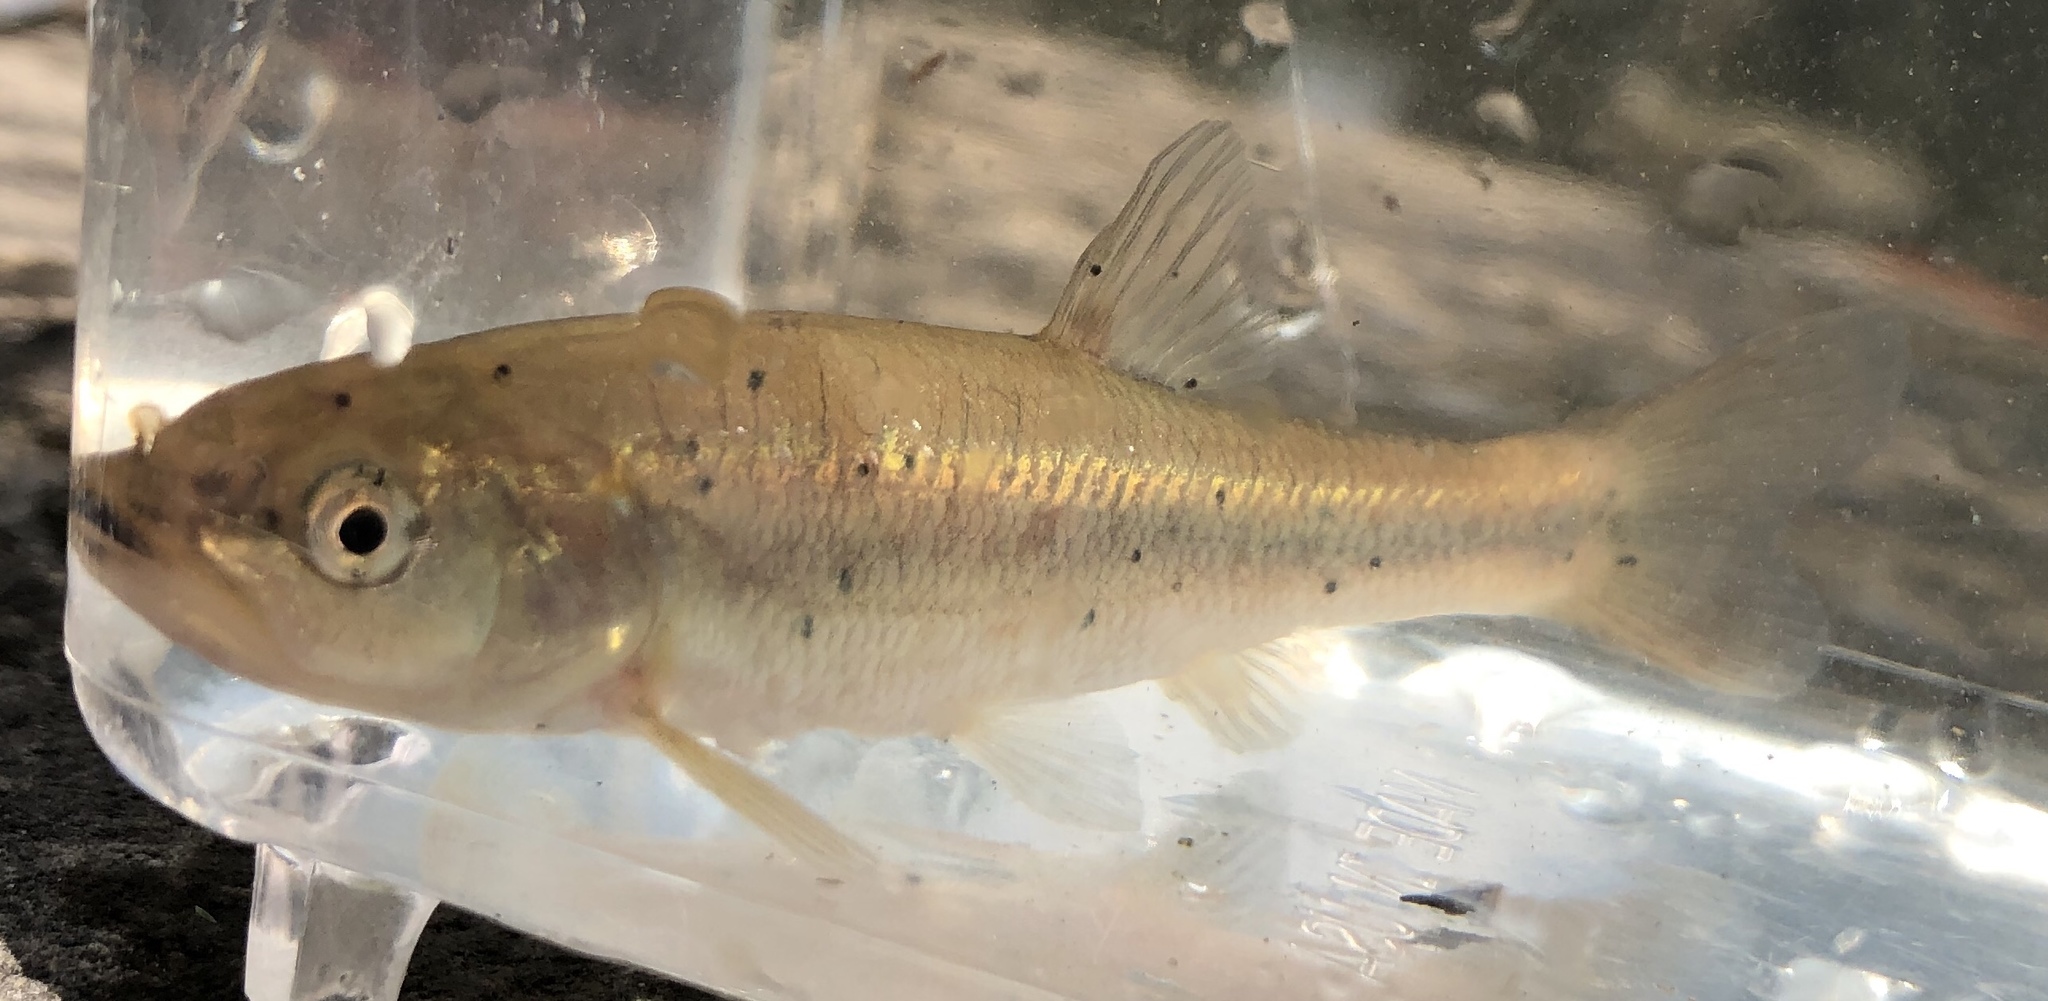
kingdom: Animalia
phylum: Chordata
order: Cypriniformes
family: Cyprinidae
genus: Semotilus
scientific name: Semotilus atromaculatus
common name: Creek chub
